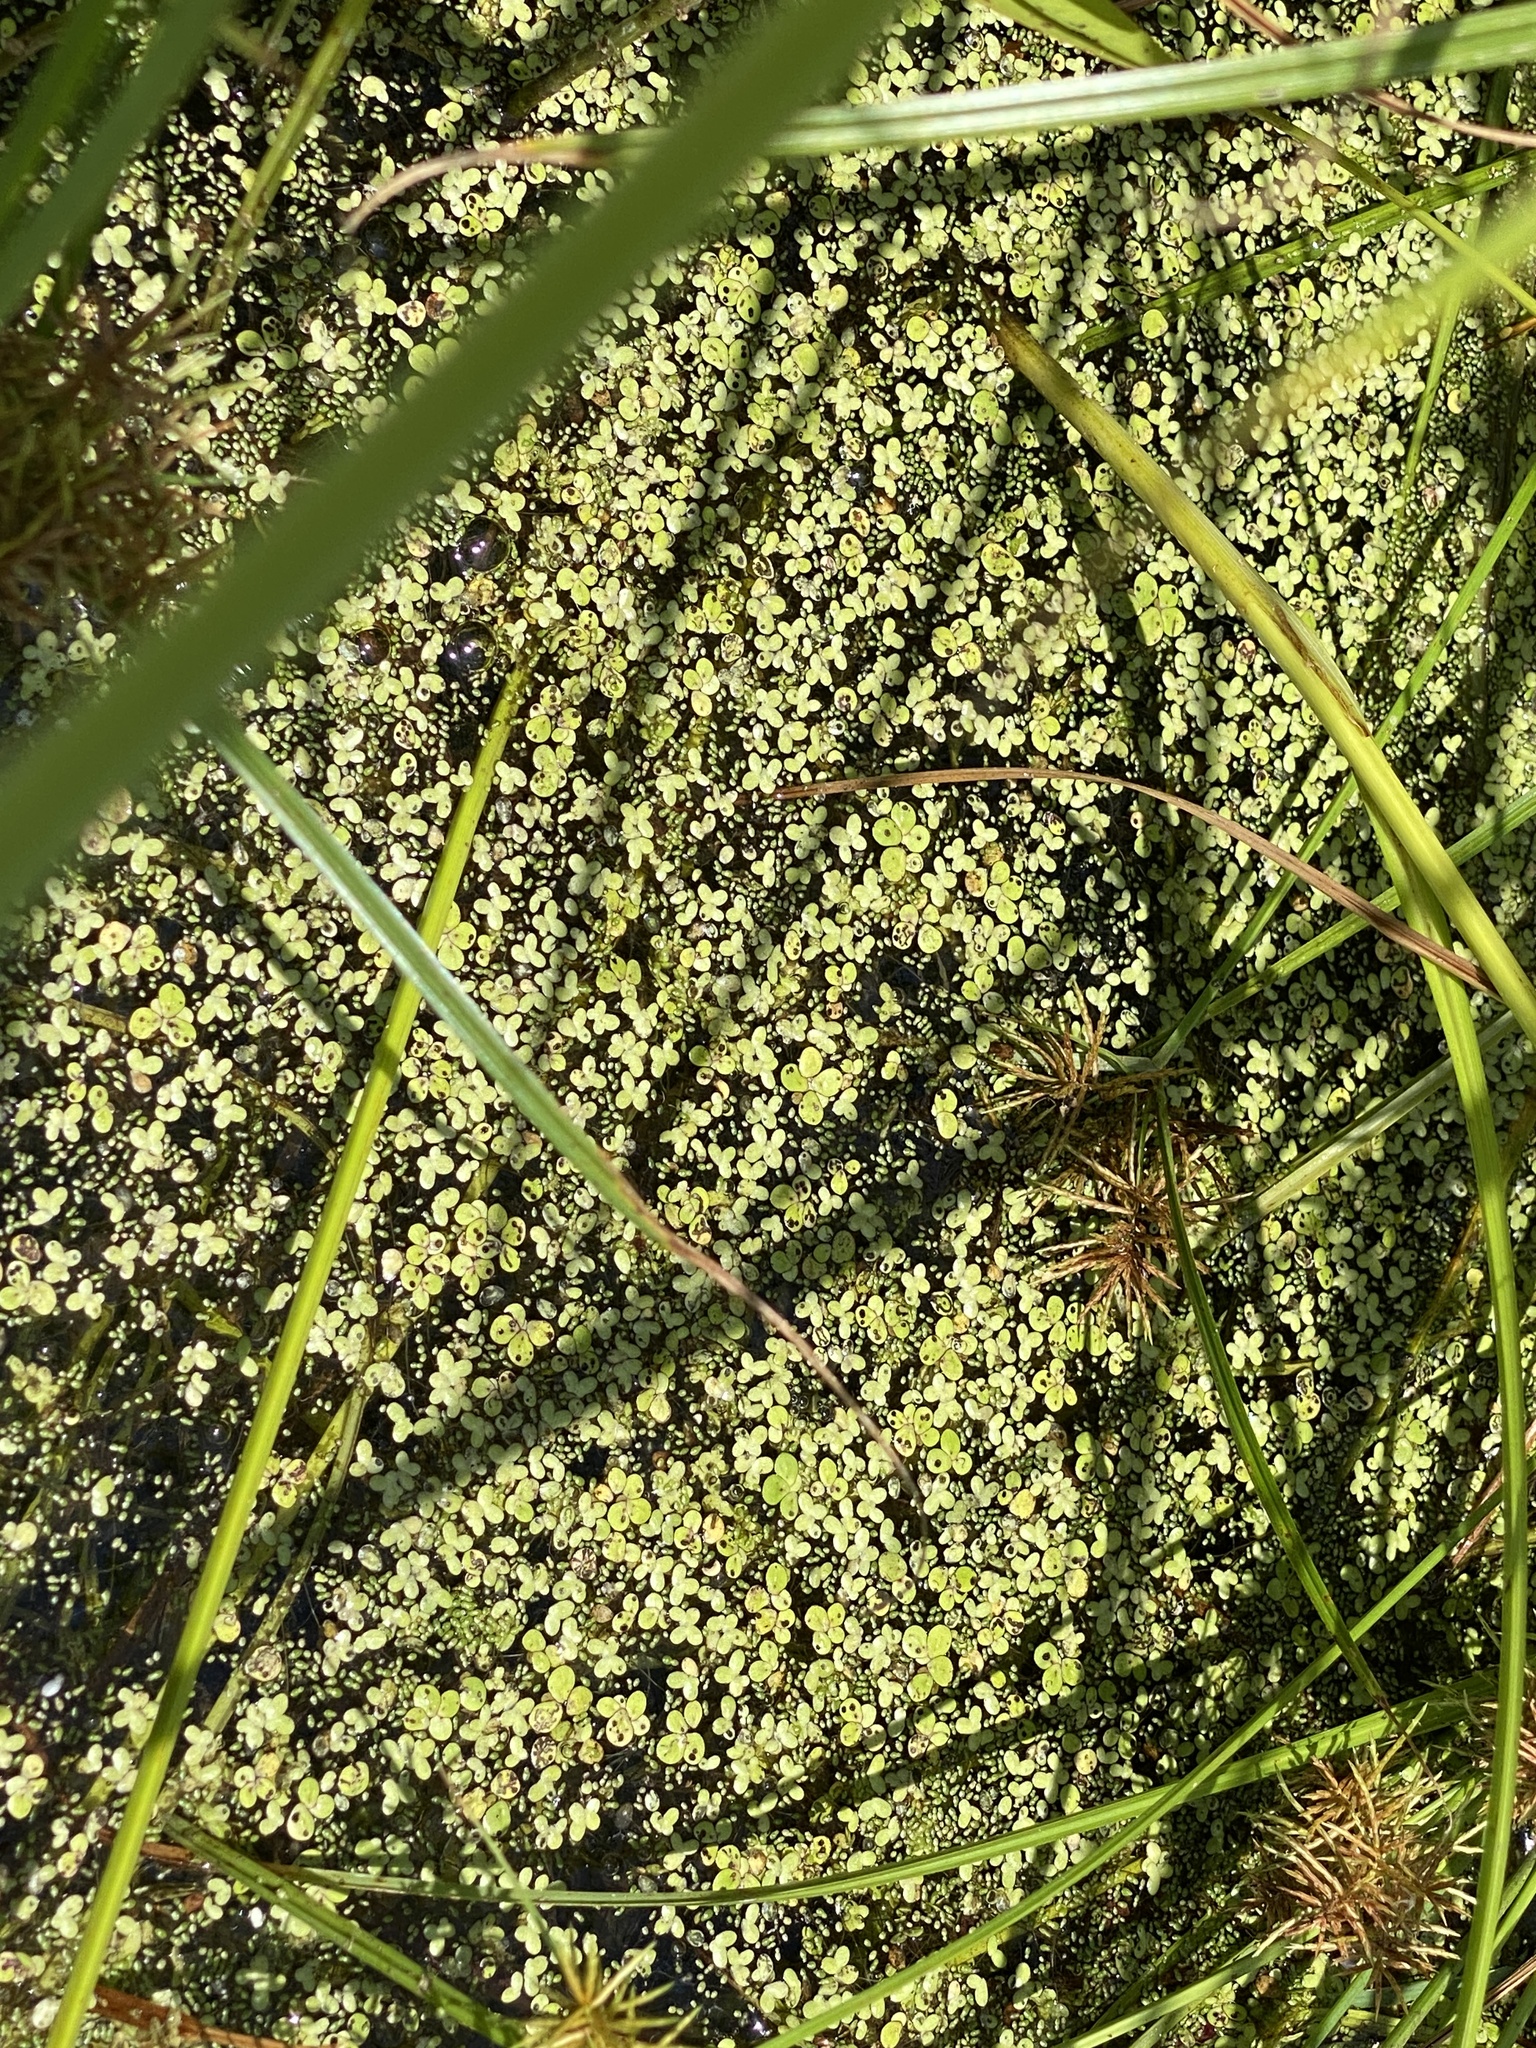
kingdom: Plantae
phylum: Tracheophyta
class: Liliopsida
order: Alismatales
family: Araceae
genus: Lemna
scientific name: Lemna minor
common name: Common duckweed
